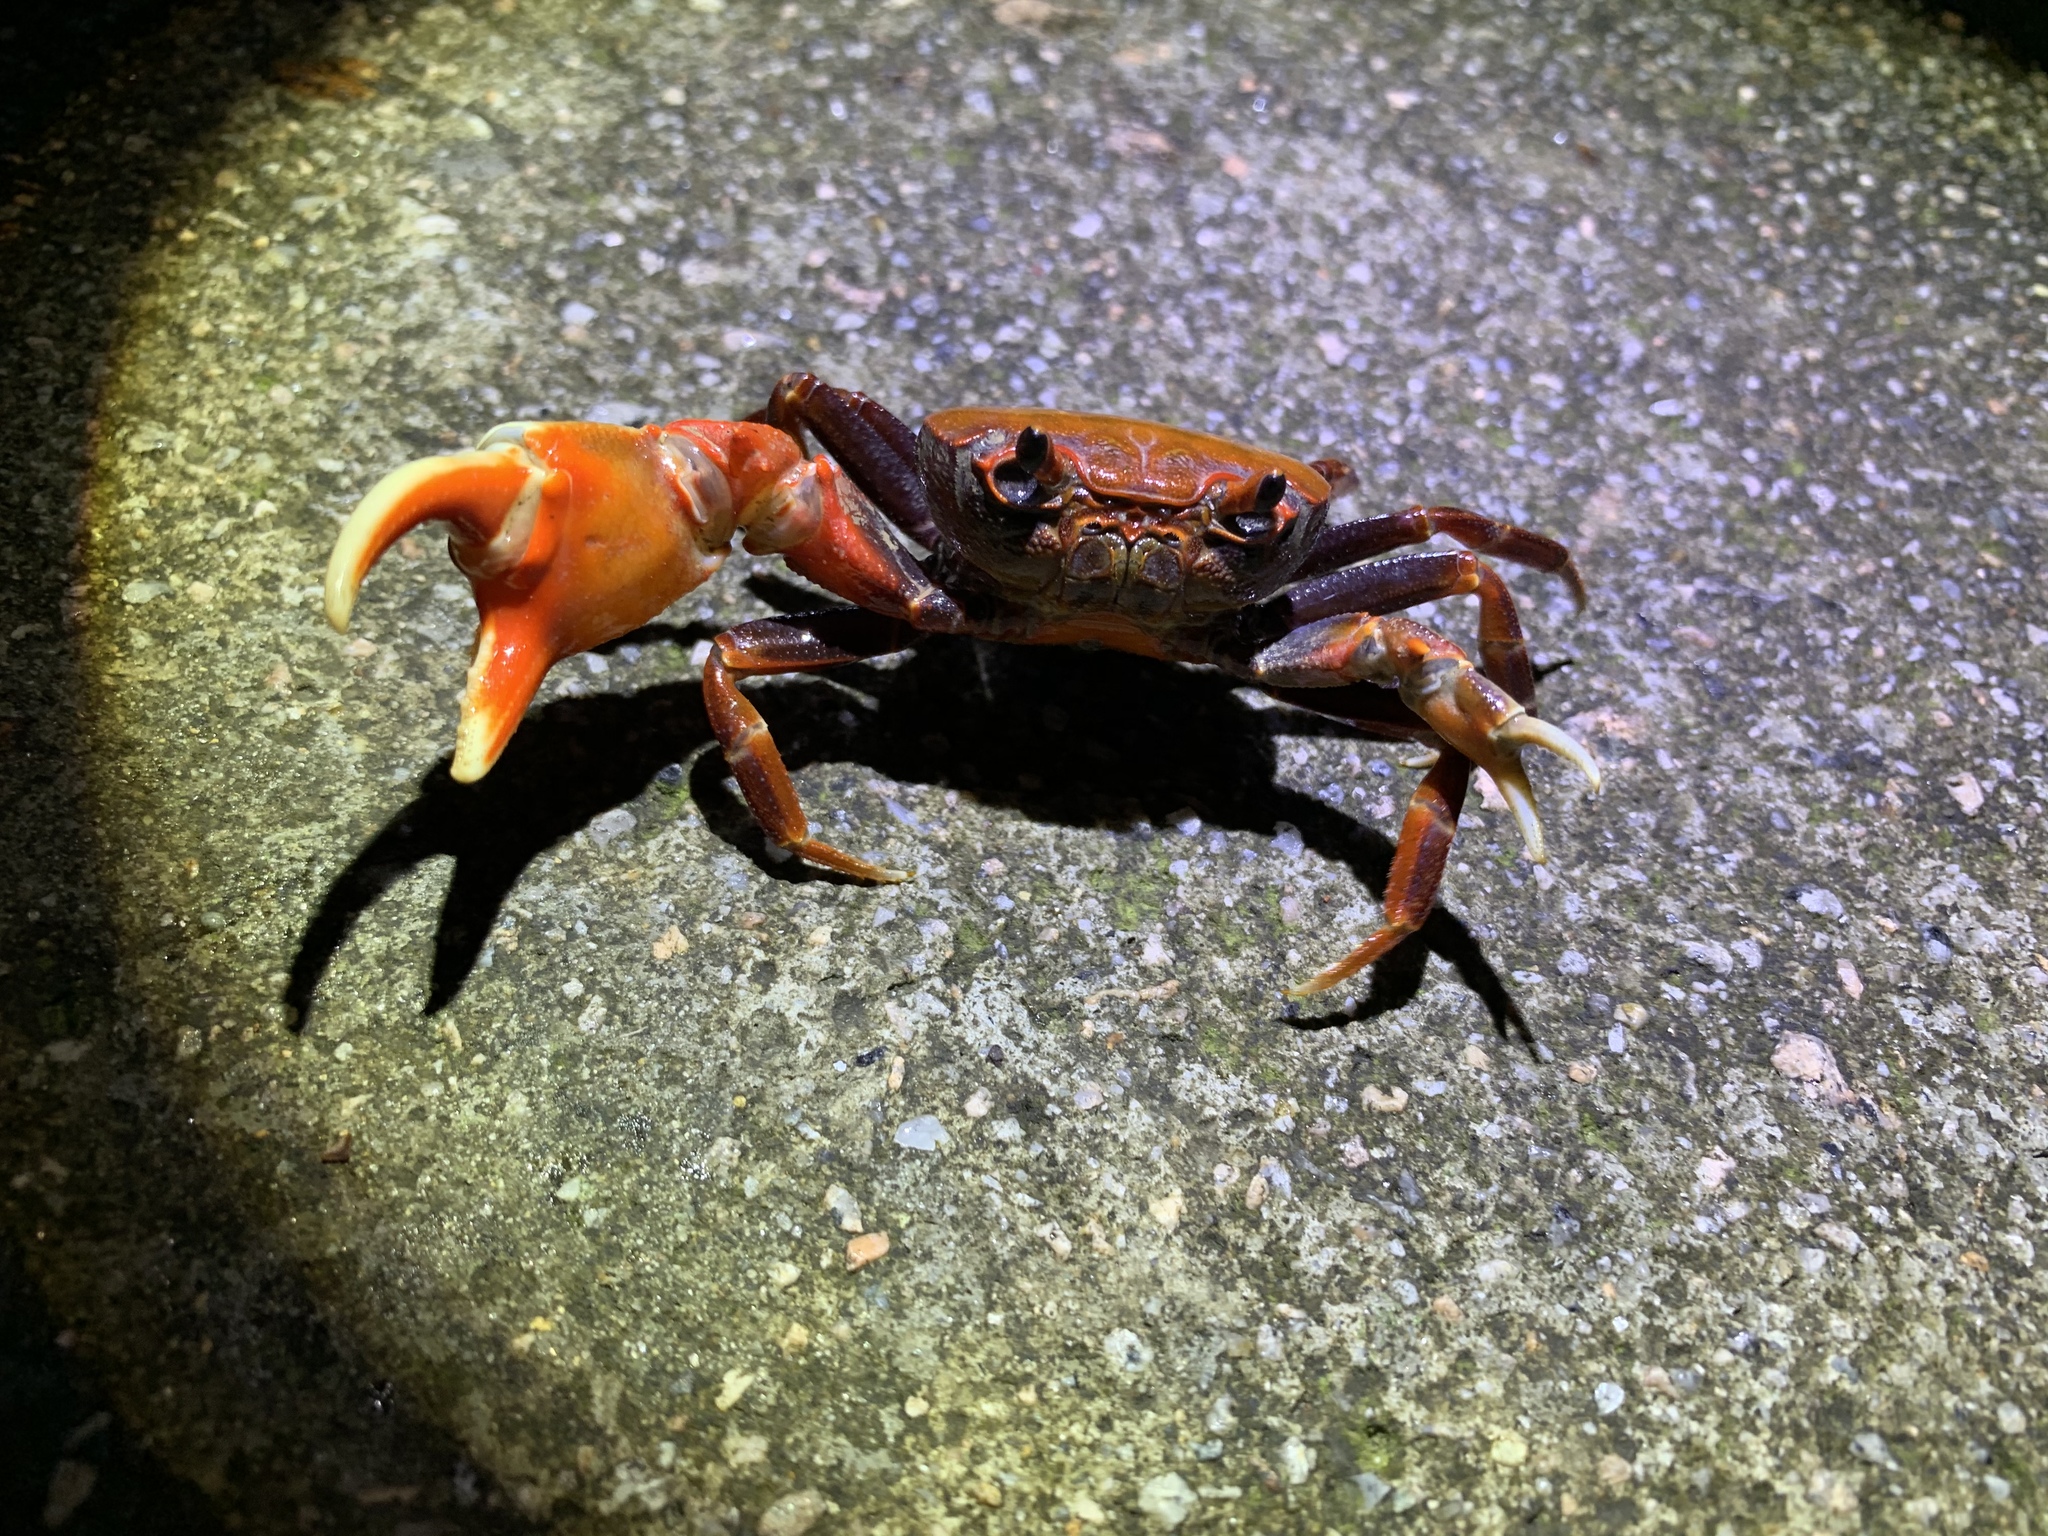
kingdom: Animalia
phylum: Arthropoda
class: Malacostraca
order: Decapoda
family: Potamidae
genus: Nanhaipotamon
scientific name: Nanhaipotamon hongkongense
